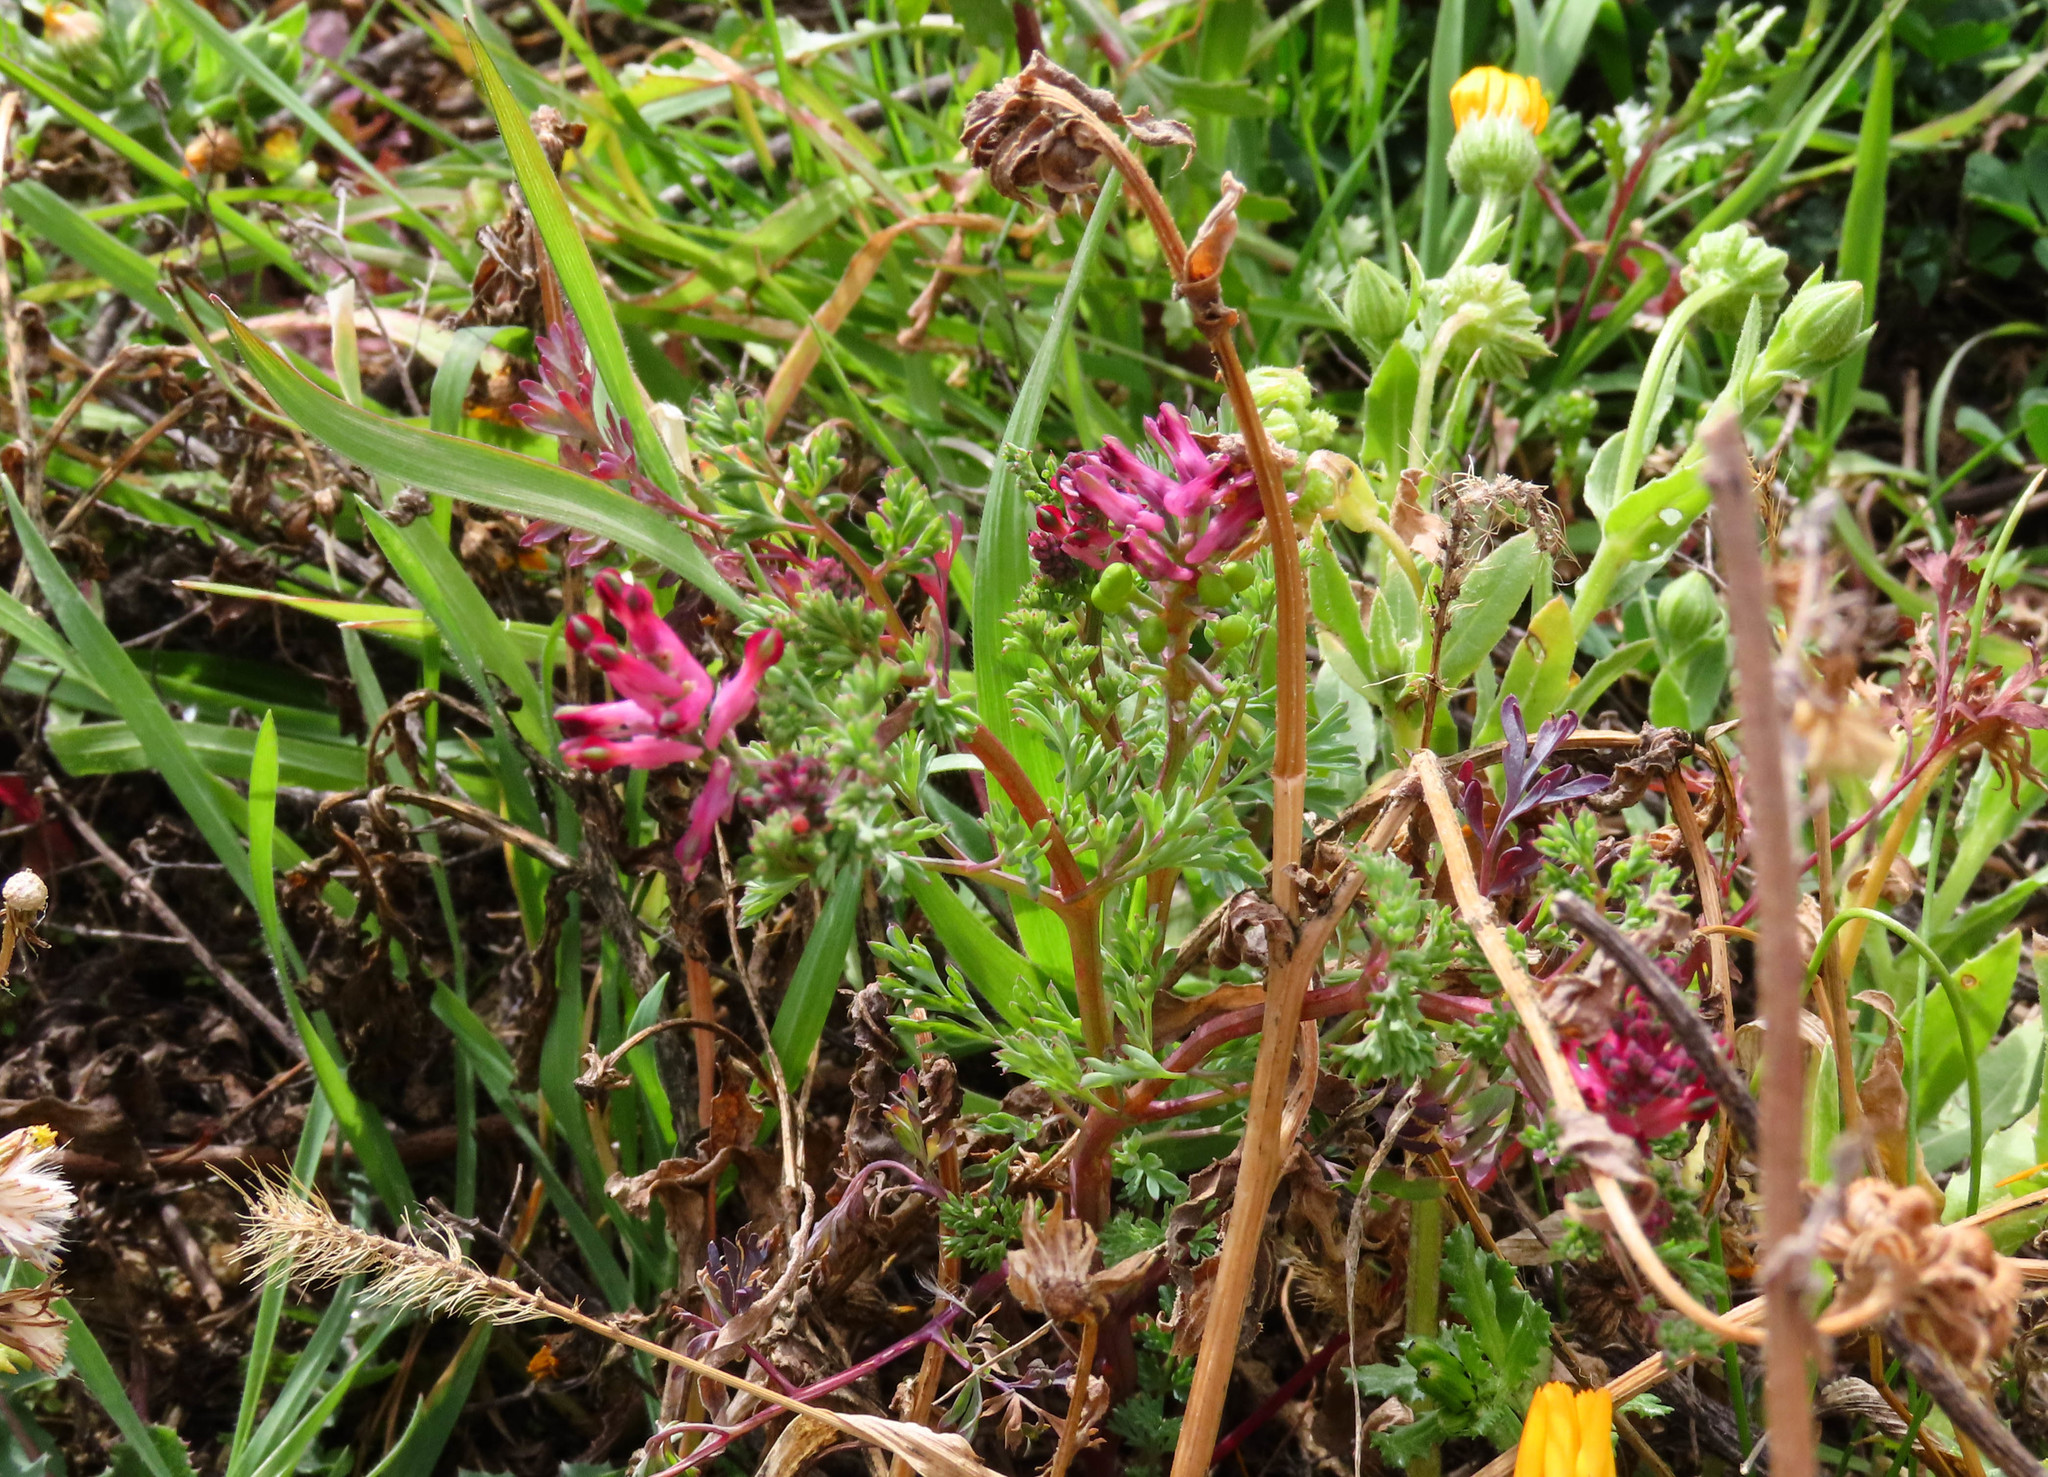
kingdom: Plantae
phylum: Tracheophyta
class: Magnoliopsida
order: Ranunculales
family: Papaveraceae
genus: Fumaria
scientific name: Fumaria officinalis
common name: Common fumitory
